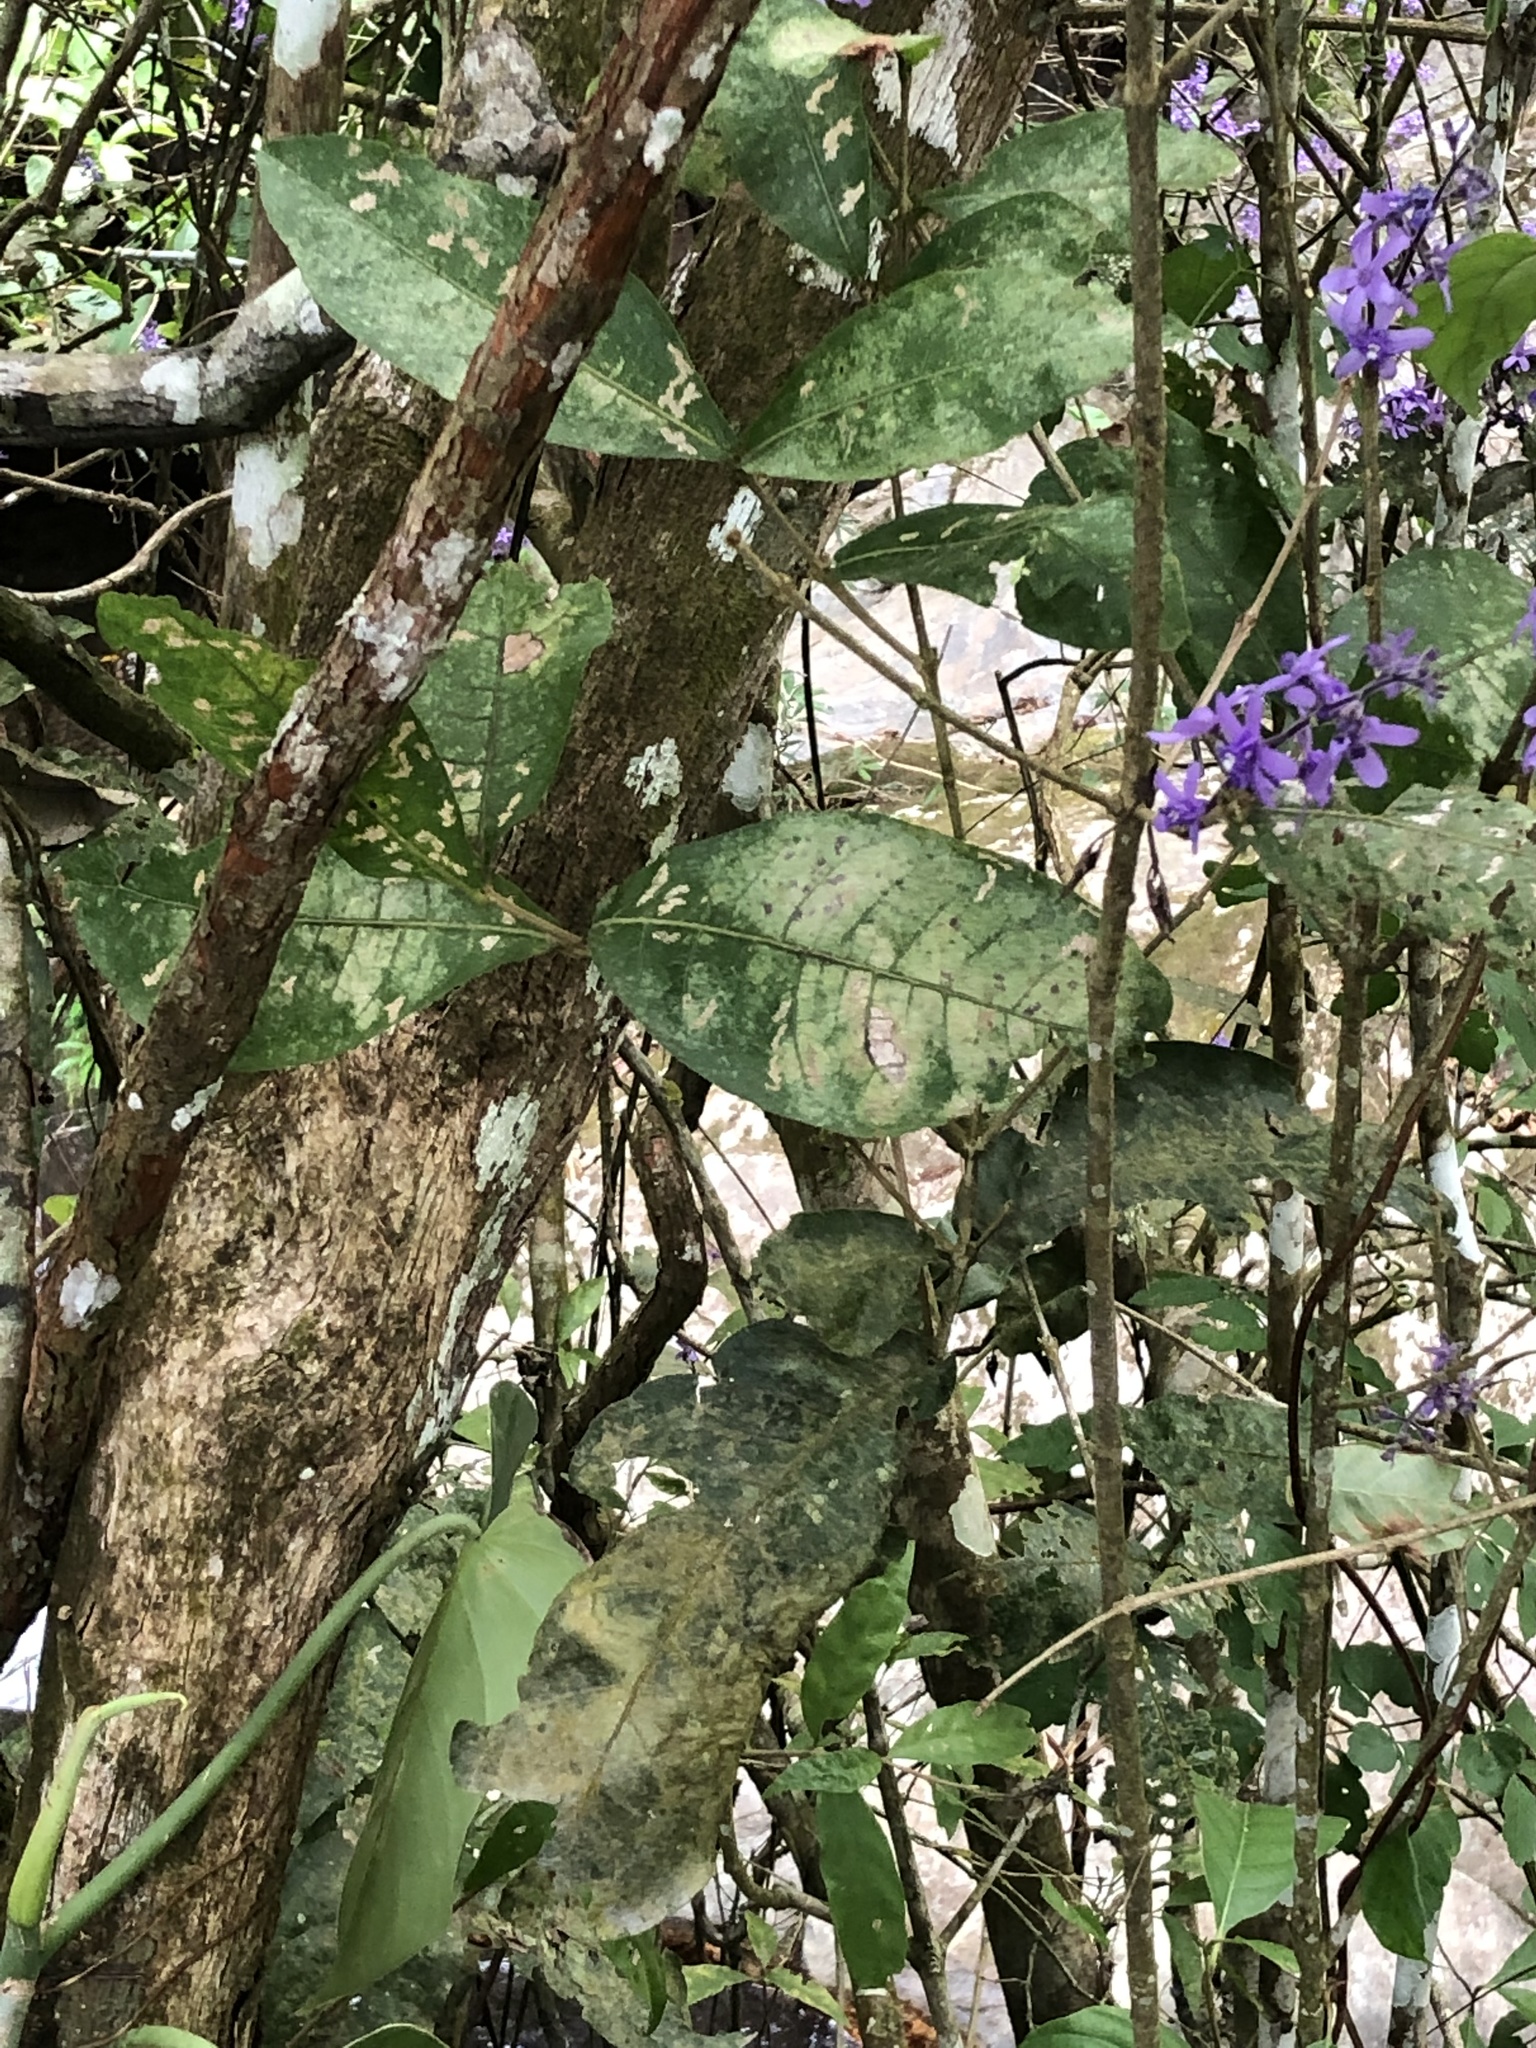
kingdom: Plantae
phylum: Tracheophyta
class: Magnoliopsida
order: Lamiales
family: Verbenaceae
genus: Petrea
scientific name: Petrea volubilis
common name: Queen's-wreath
